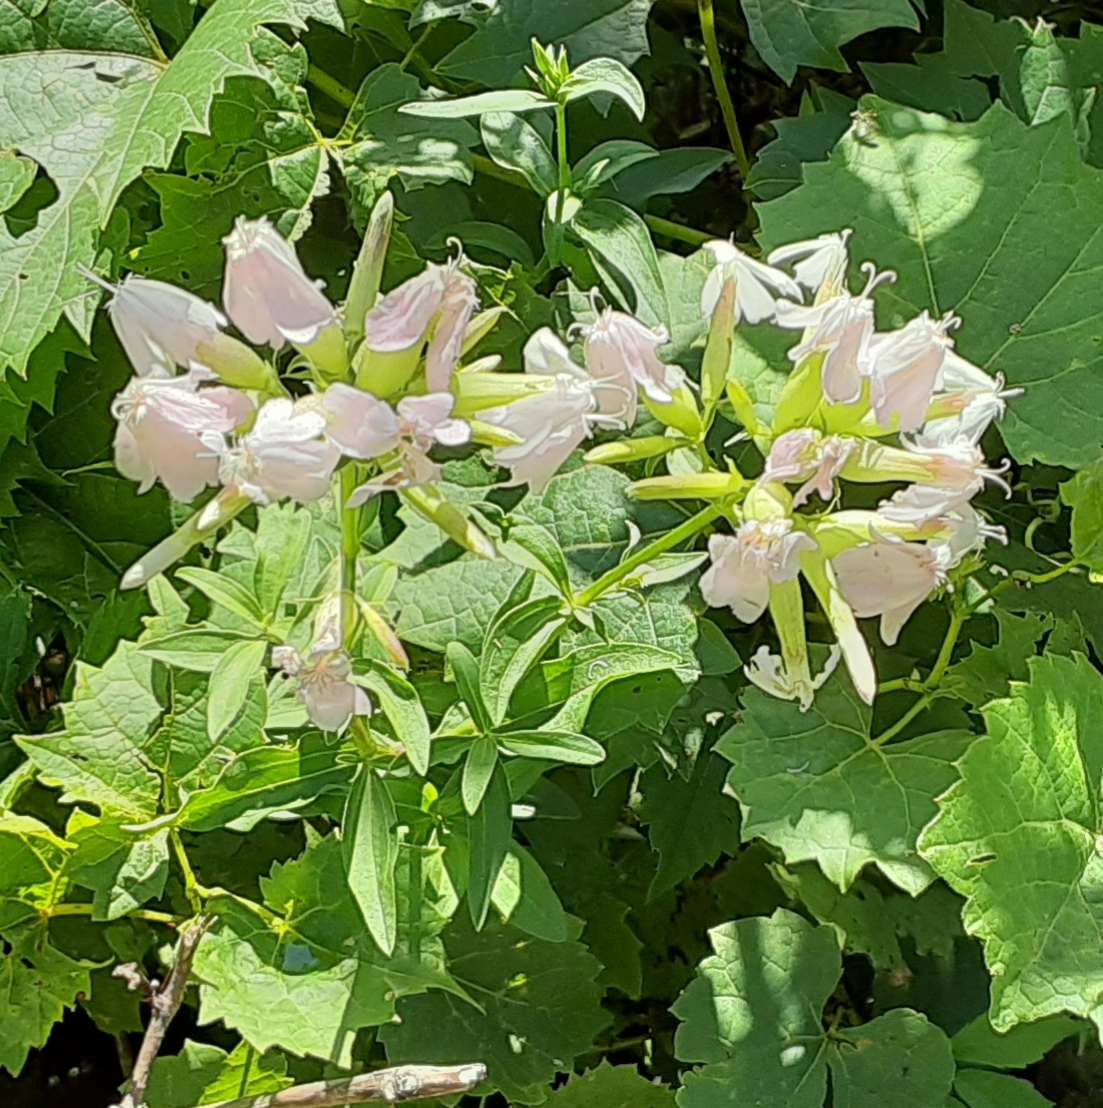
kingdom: Plantae
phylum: Tracheophyta
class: Magnoliopsida
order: Caryophyllales
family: Caryophyllaceae
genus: Saponaria
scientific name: Saponaria officinalis
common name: Soapwort
